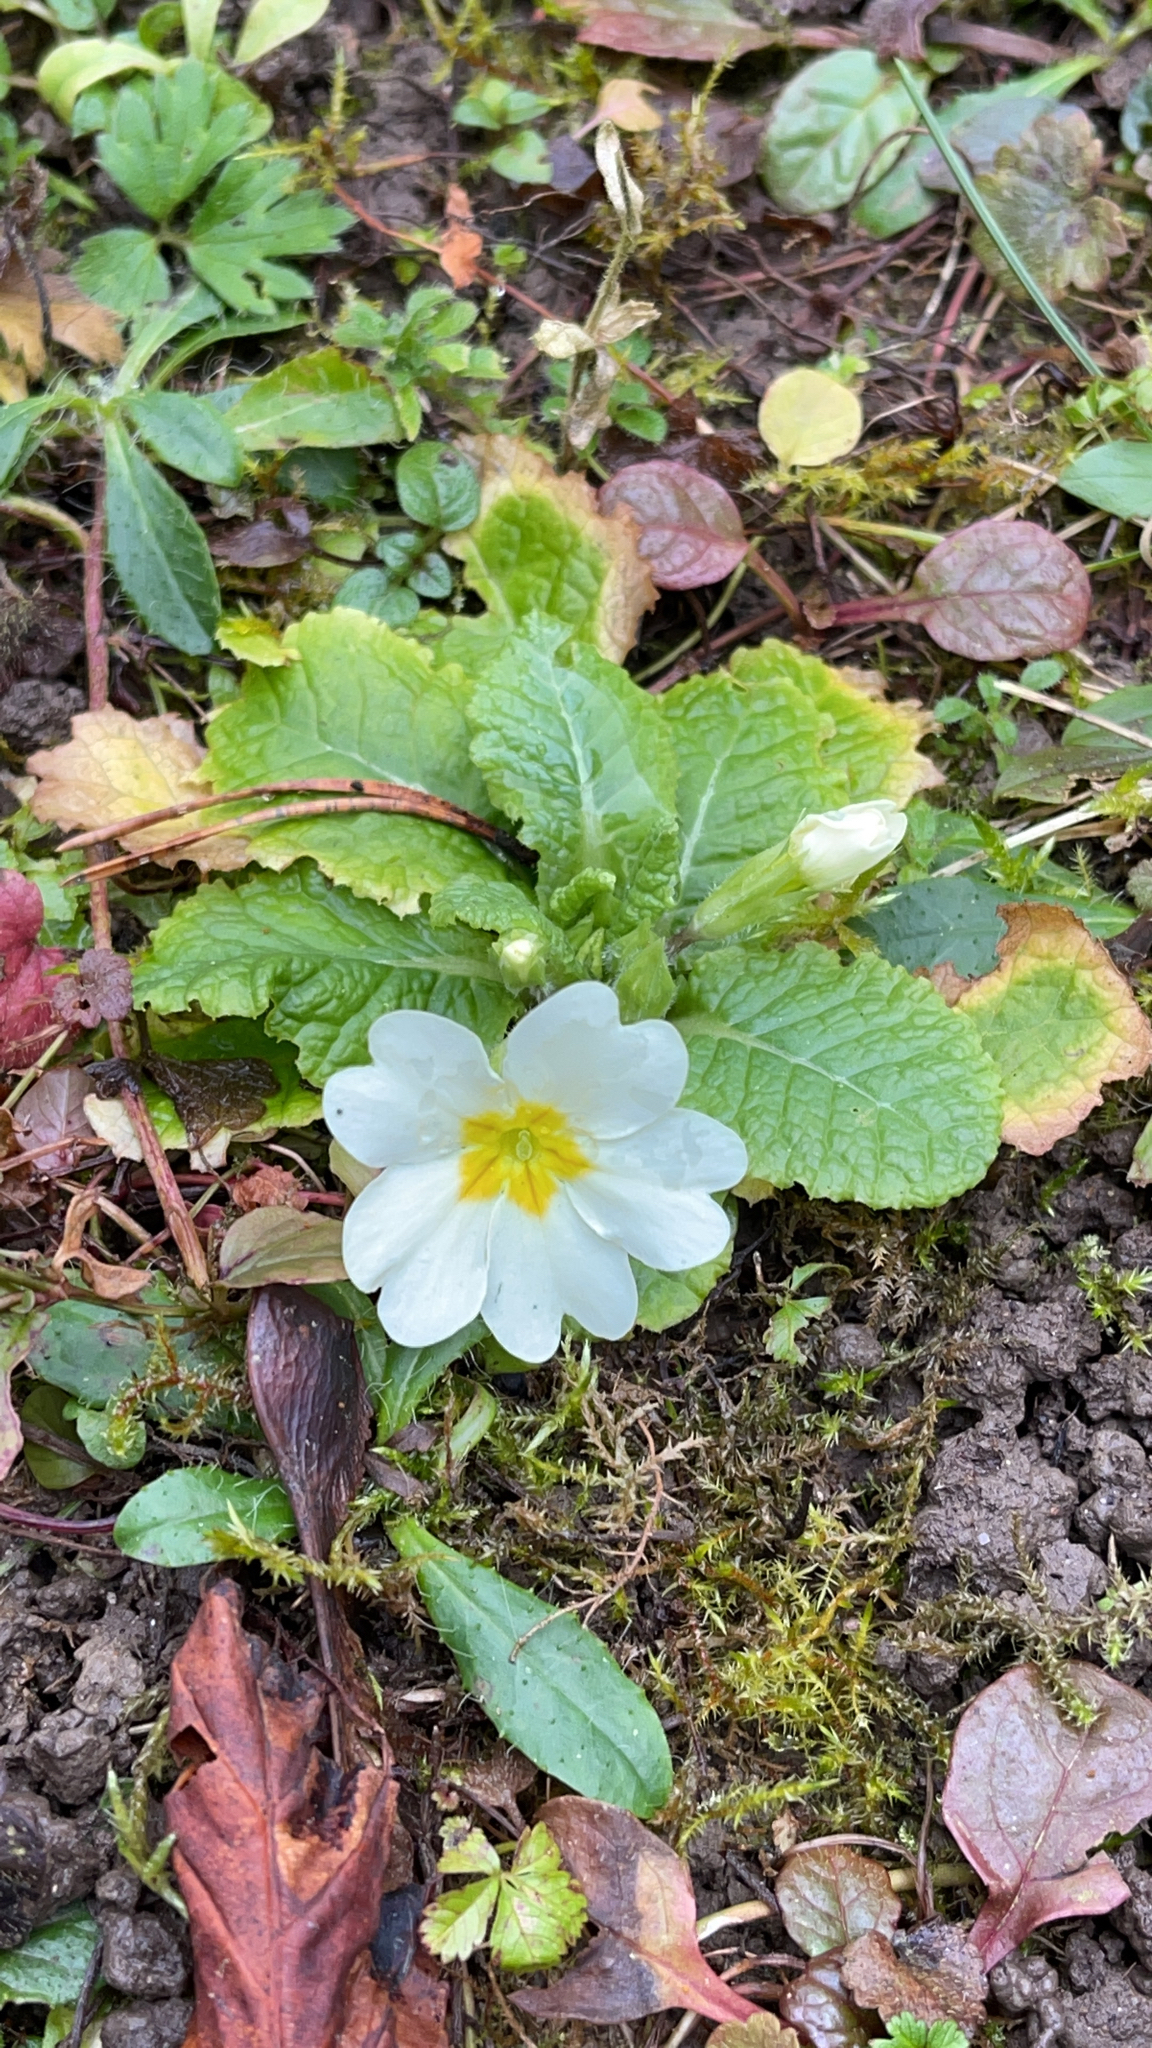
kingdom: Plantae
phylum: Tracheophyta
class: Magnoliopsida
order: Ericales
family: Primulaceae
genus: Primula
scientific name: Primula vulgaris
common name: Primrose
